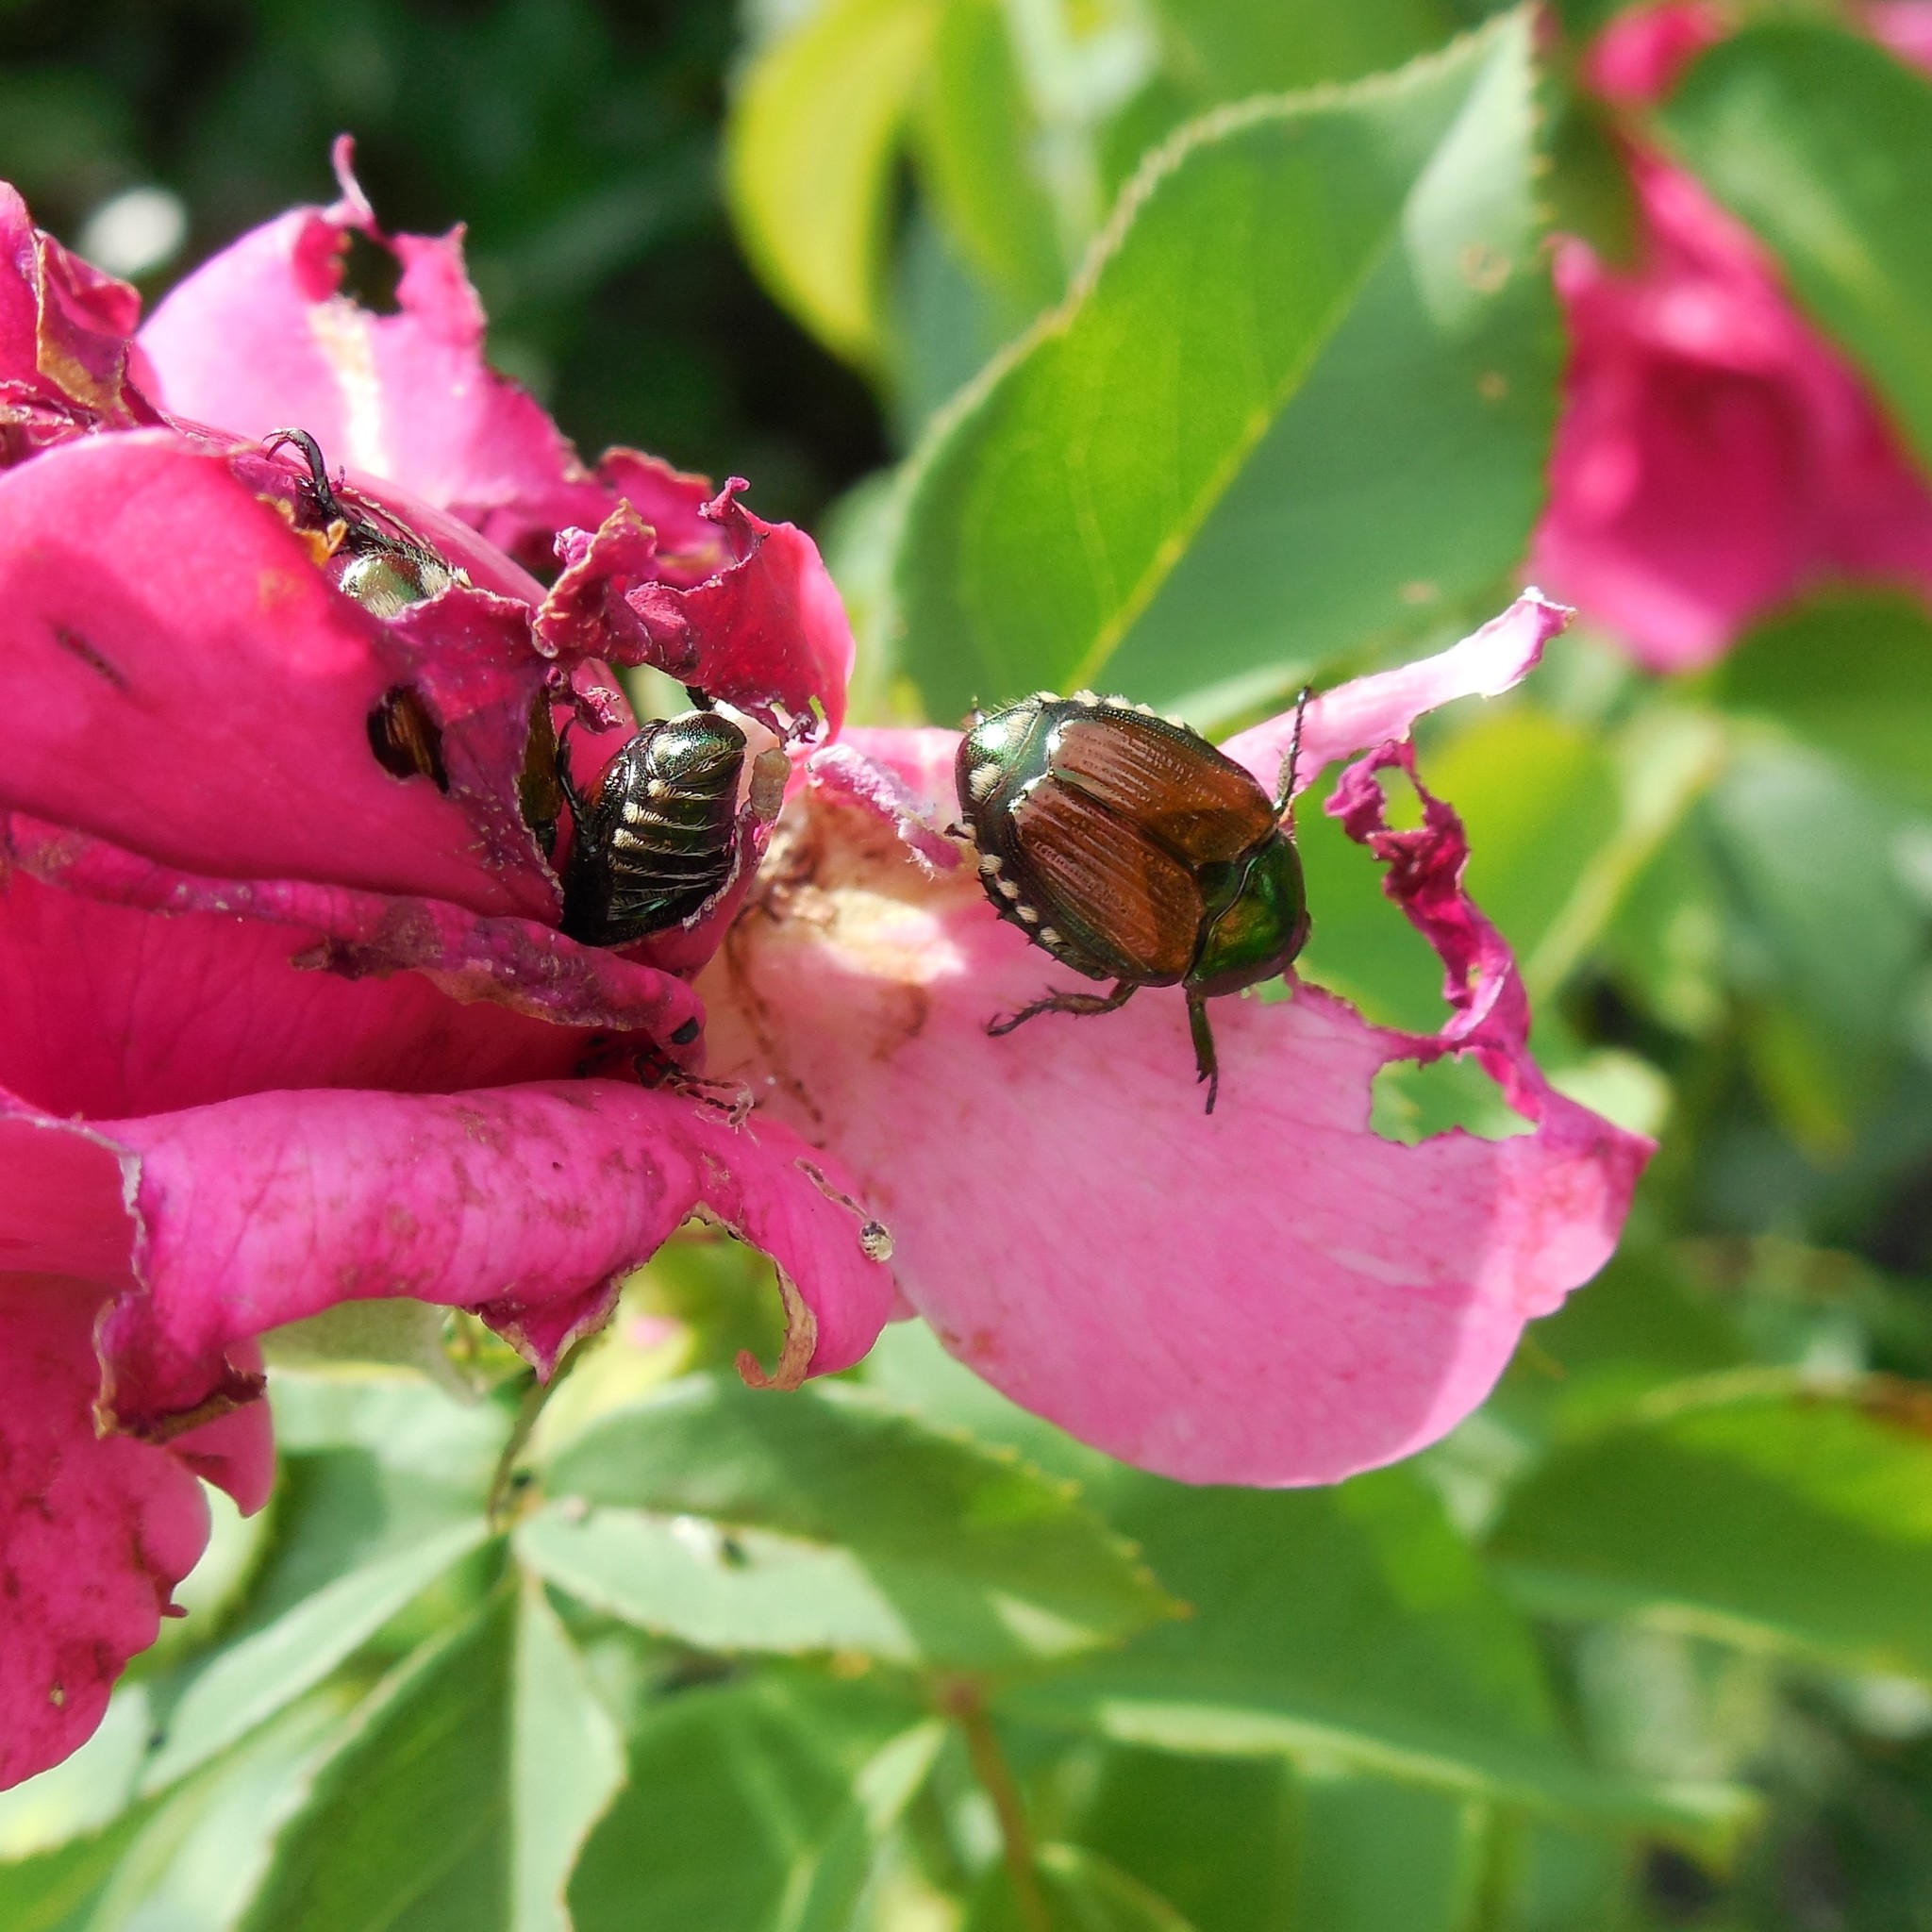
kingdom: Animalia
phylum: Arthropoda
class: Insecta
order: Coleoptera
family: Scarabaeidae
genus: Popillia
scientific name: Popillia japonica
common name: Japanese beetle
